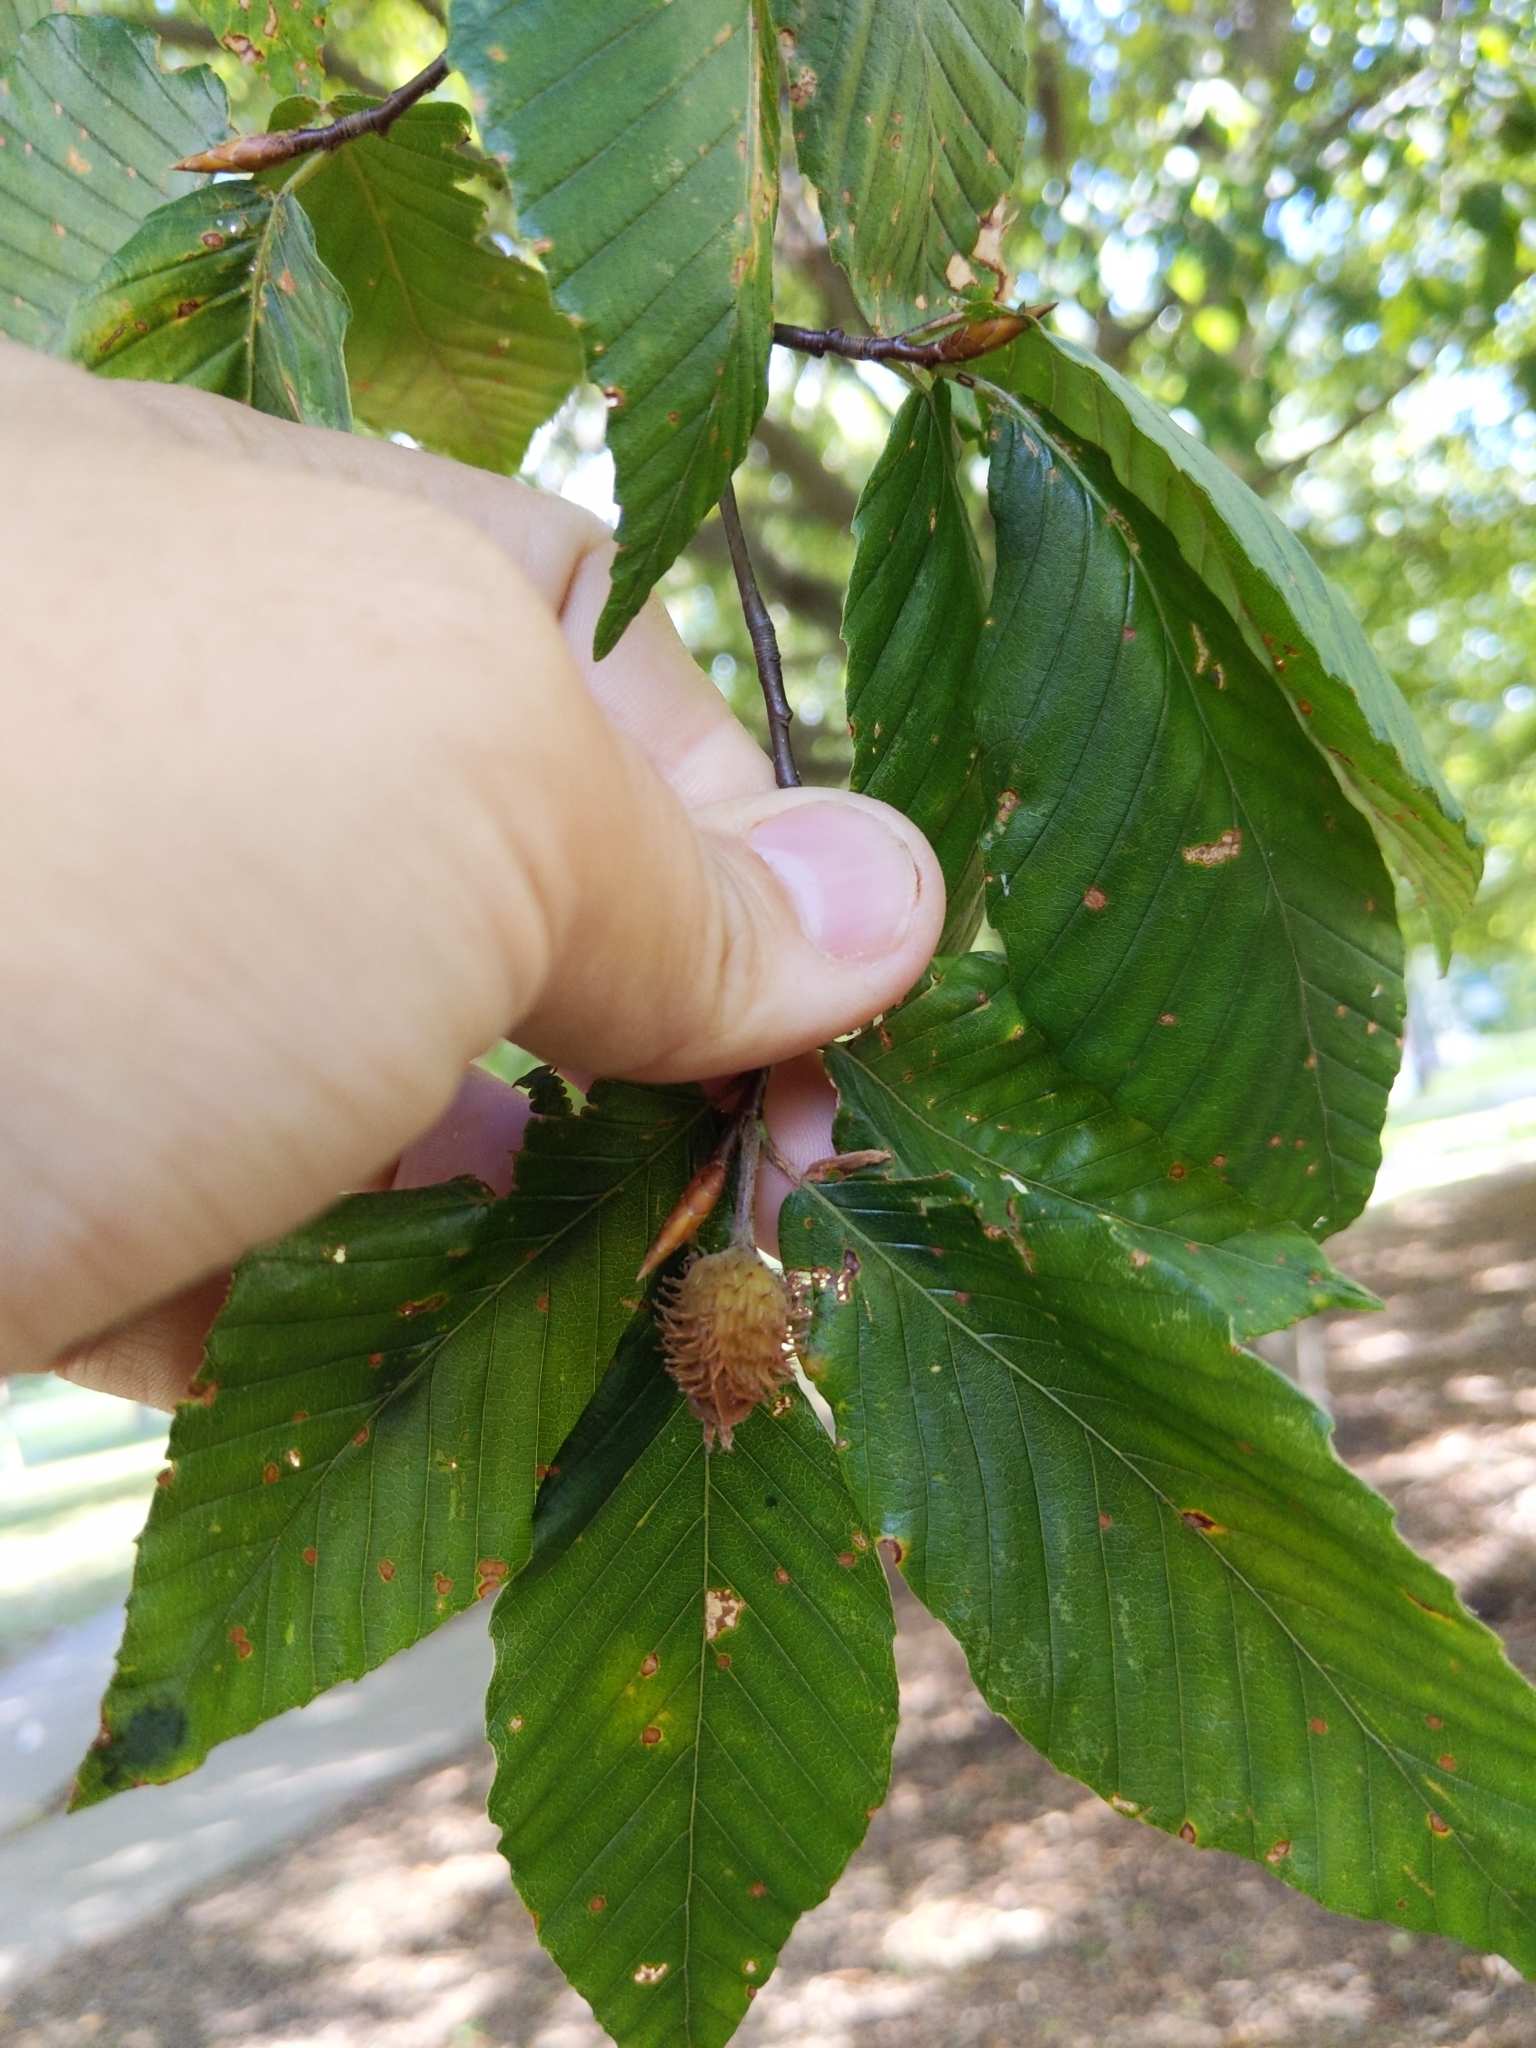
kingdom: Plantae
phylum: Tracheophyta
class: Magnoliopsida
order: Fagales
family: Fagaceae
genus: Fagus
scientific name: Fagus grandifolia
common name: American beech
